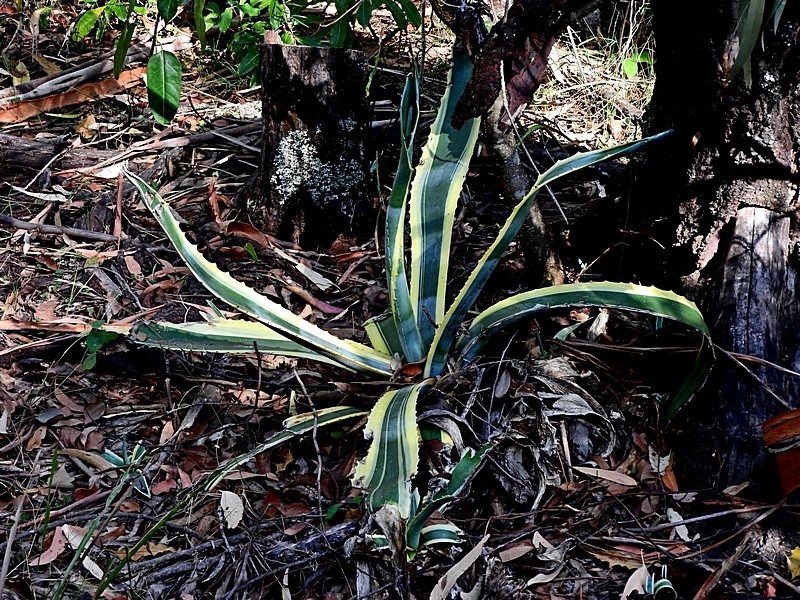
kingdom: Plantae
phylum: Tracheophyta
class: Liliopsida
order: Asparagales
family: Asparagaceae
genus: Agave
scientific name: Agave americana
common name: Centuryplant
